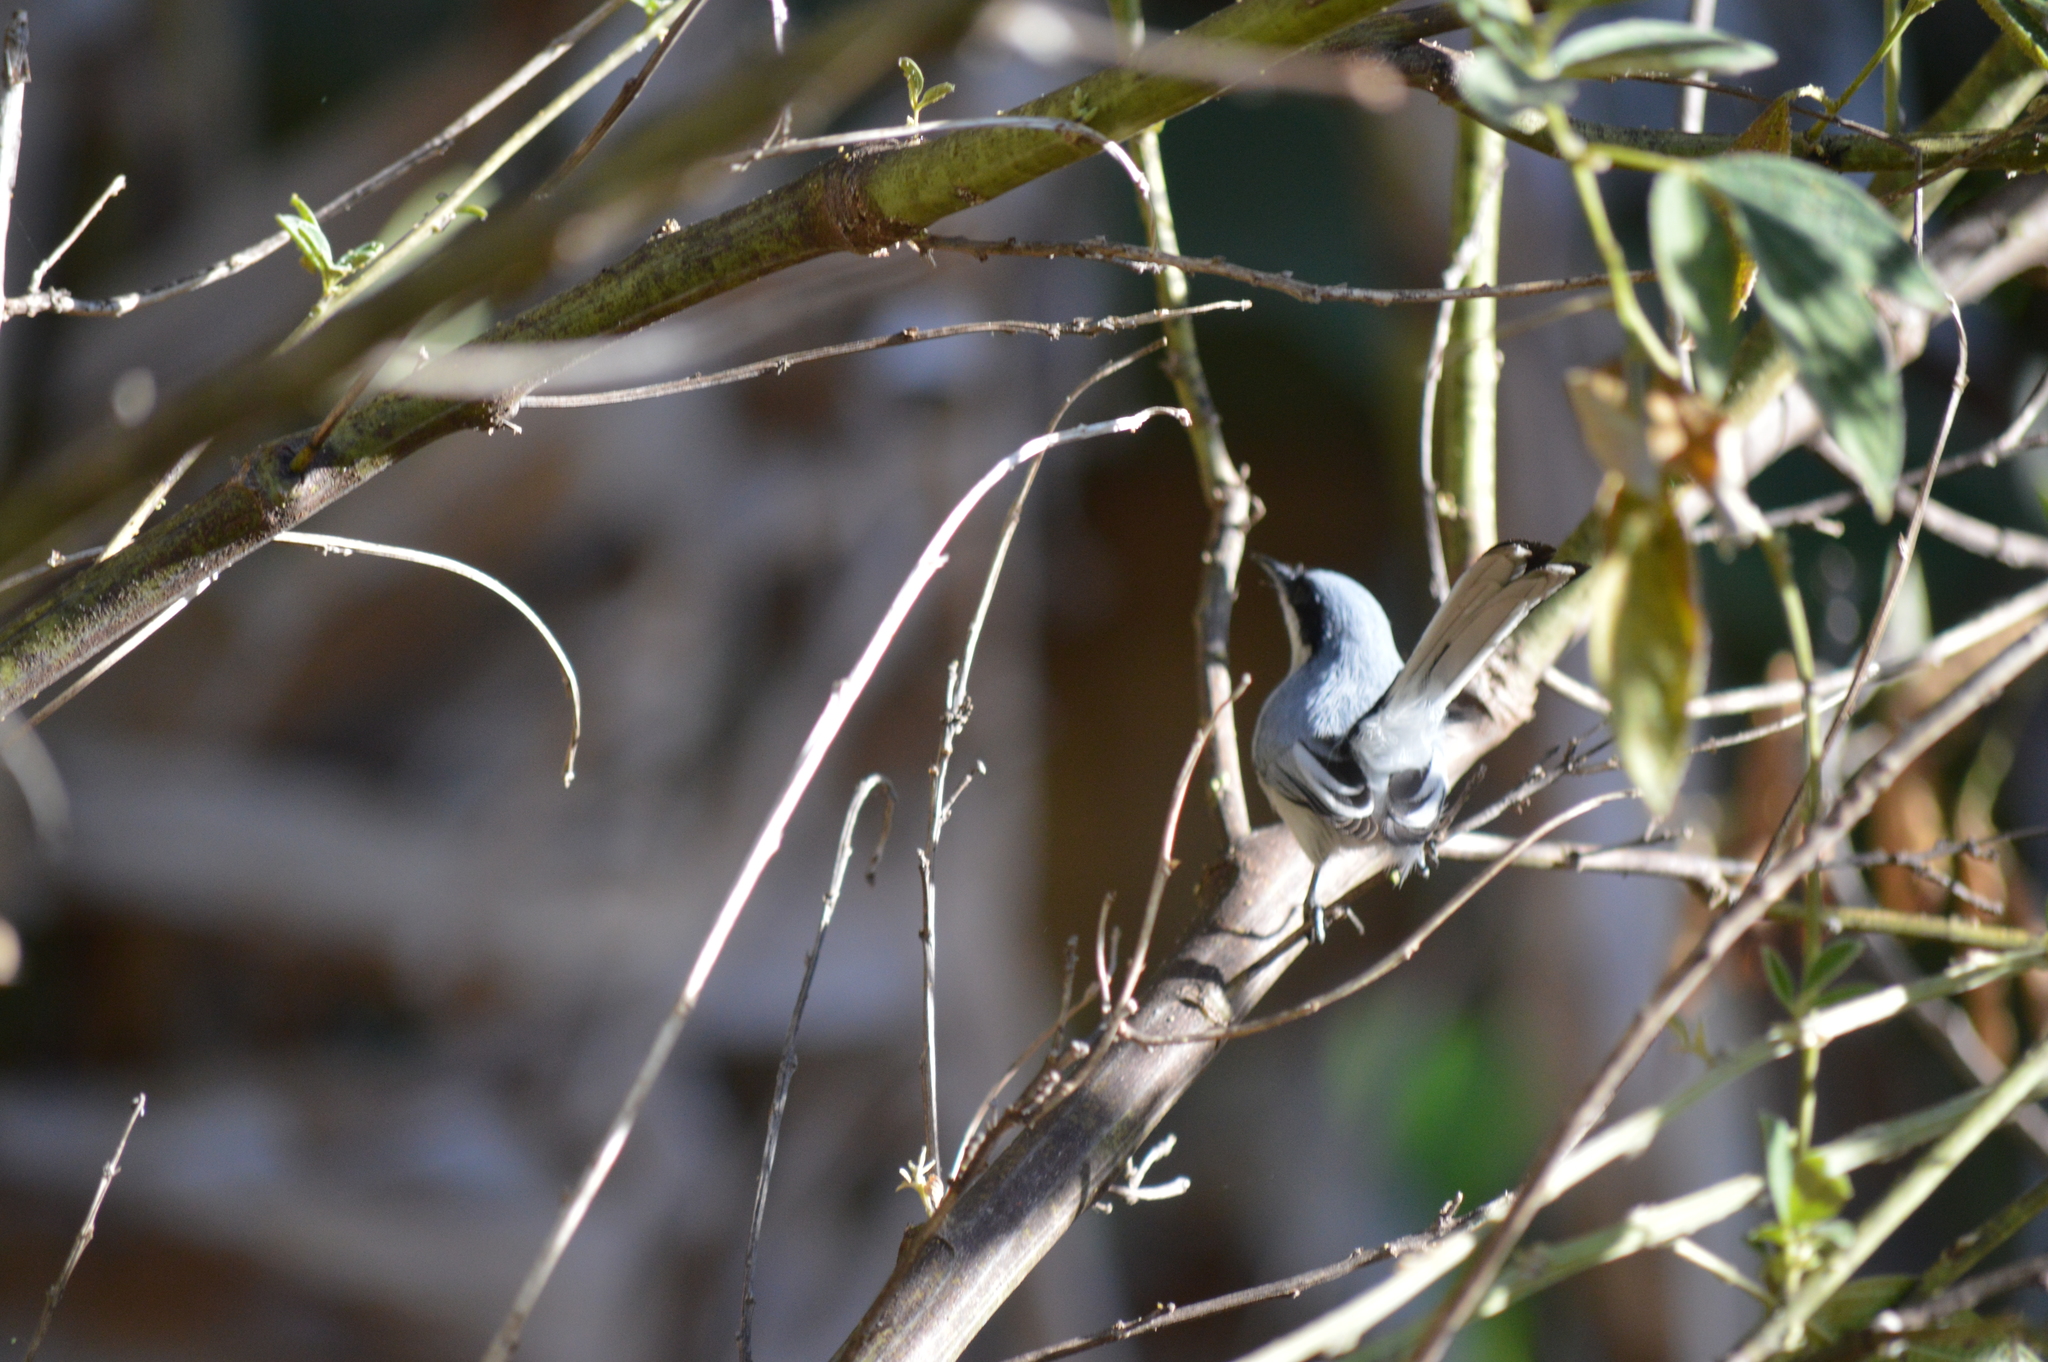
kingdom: Animalia
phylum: Chordata
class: Aves
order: Passeriformes
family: Polioptilidae
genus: Polioptila
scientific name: Polioptila dumicola
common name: Masked gnatcatcher
